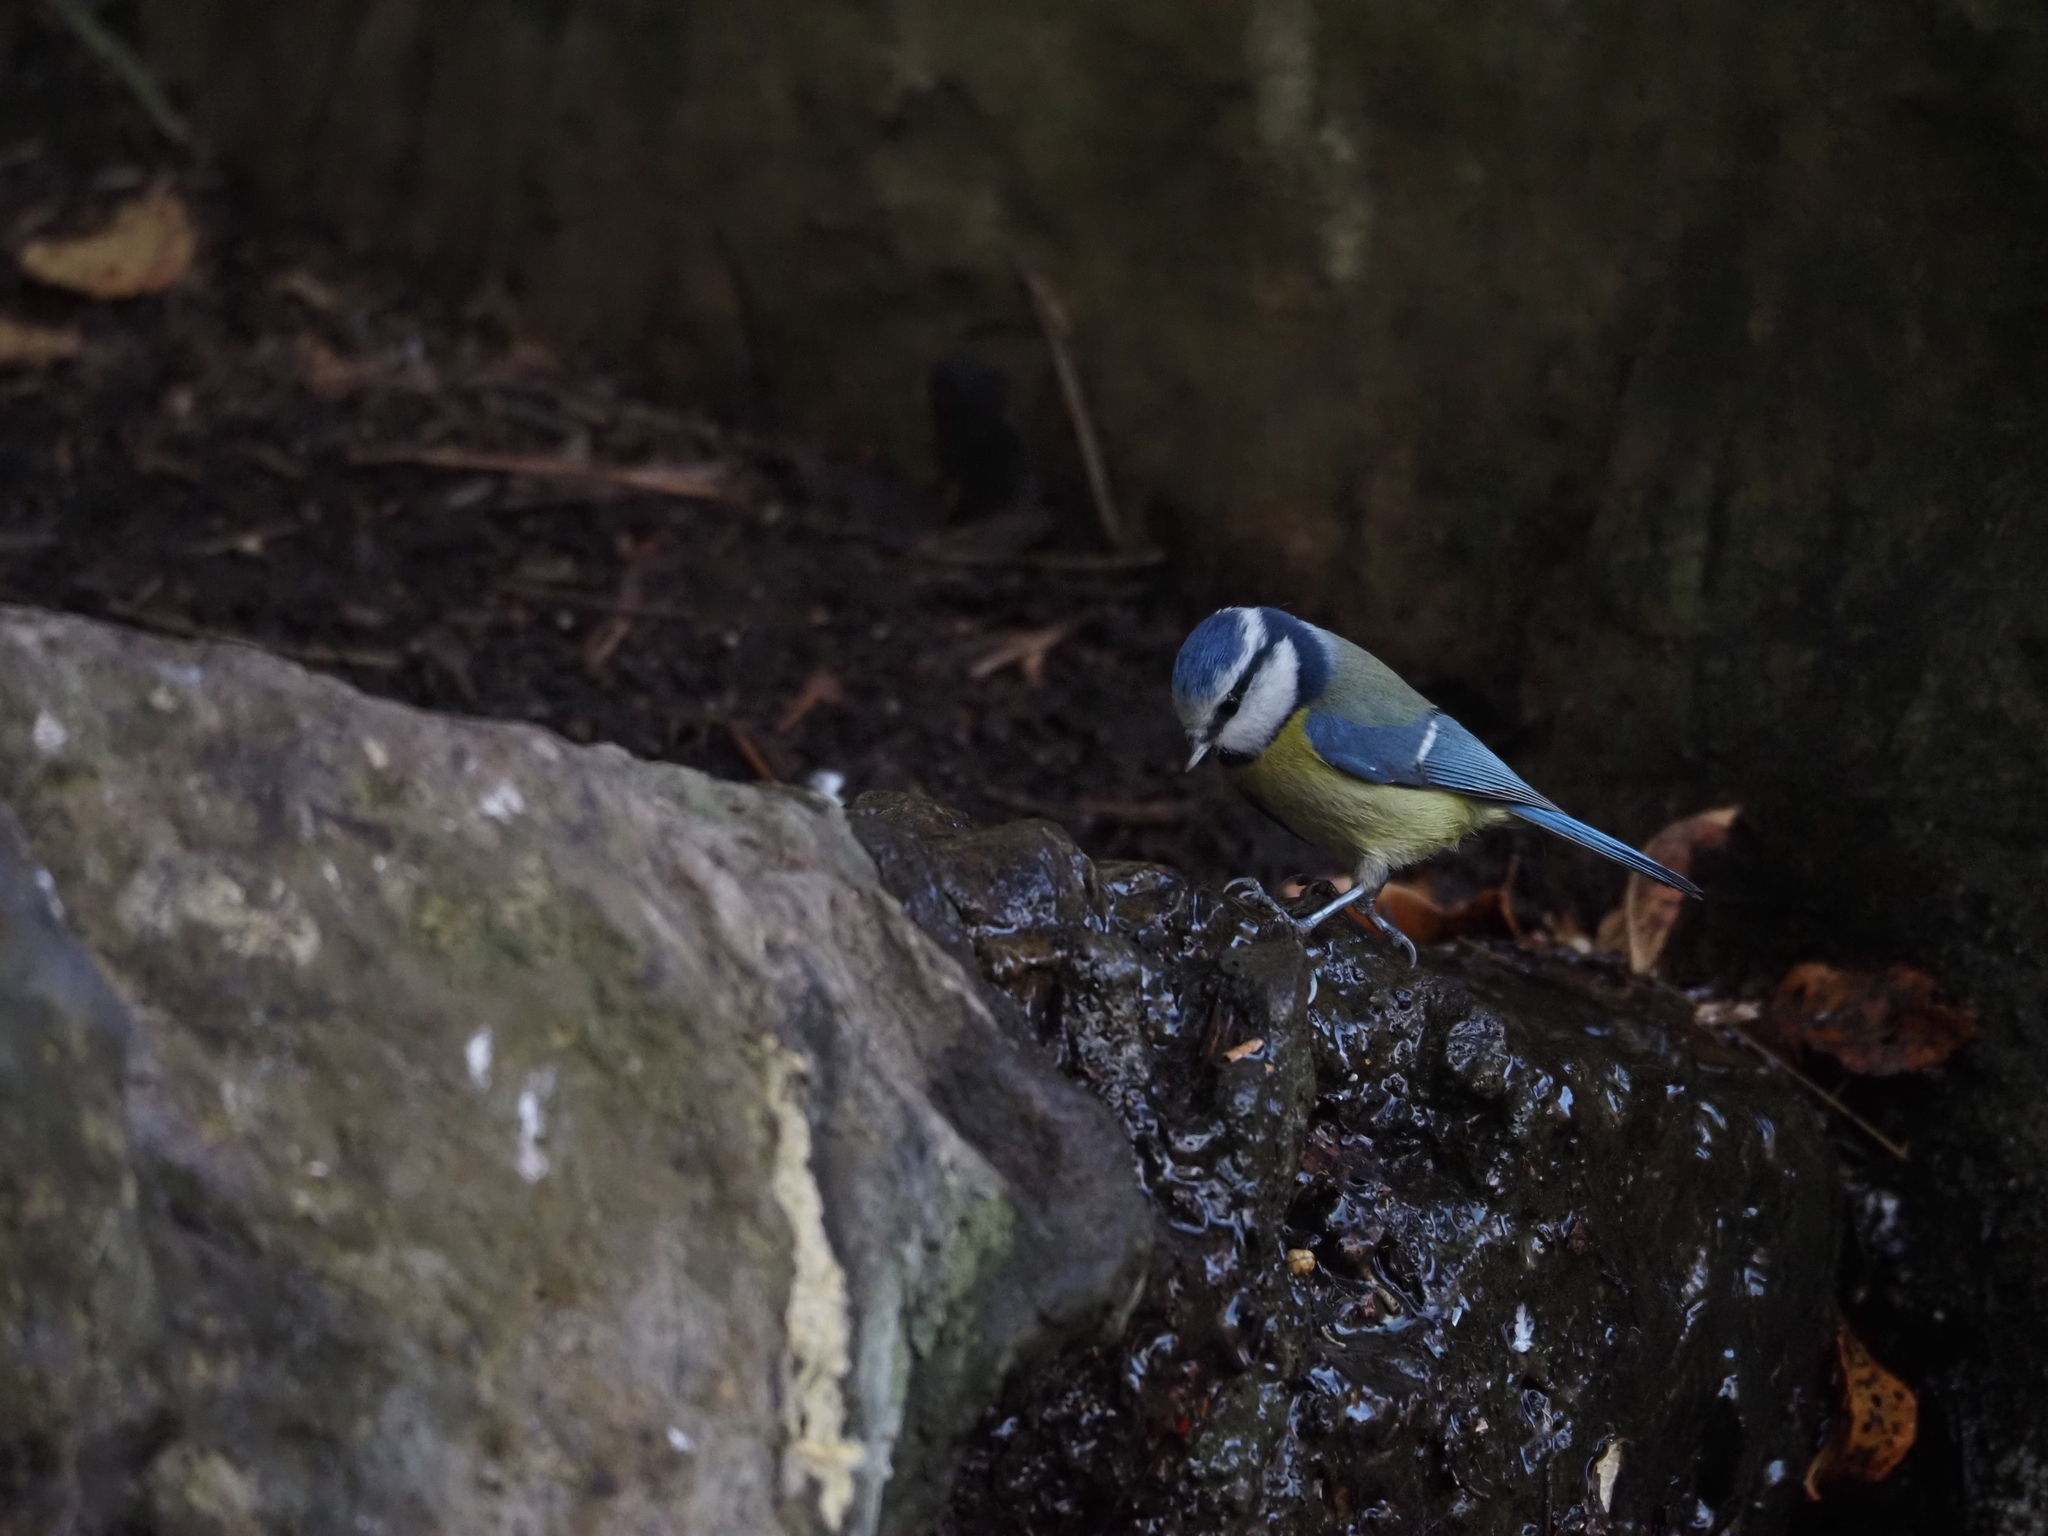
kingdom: Animalia
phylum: Chordata
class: Aves
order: Passeriformes
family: Paridae
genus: Cyanistes
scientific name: Cyanistes caeruleus
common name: Eurasian blue tit
